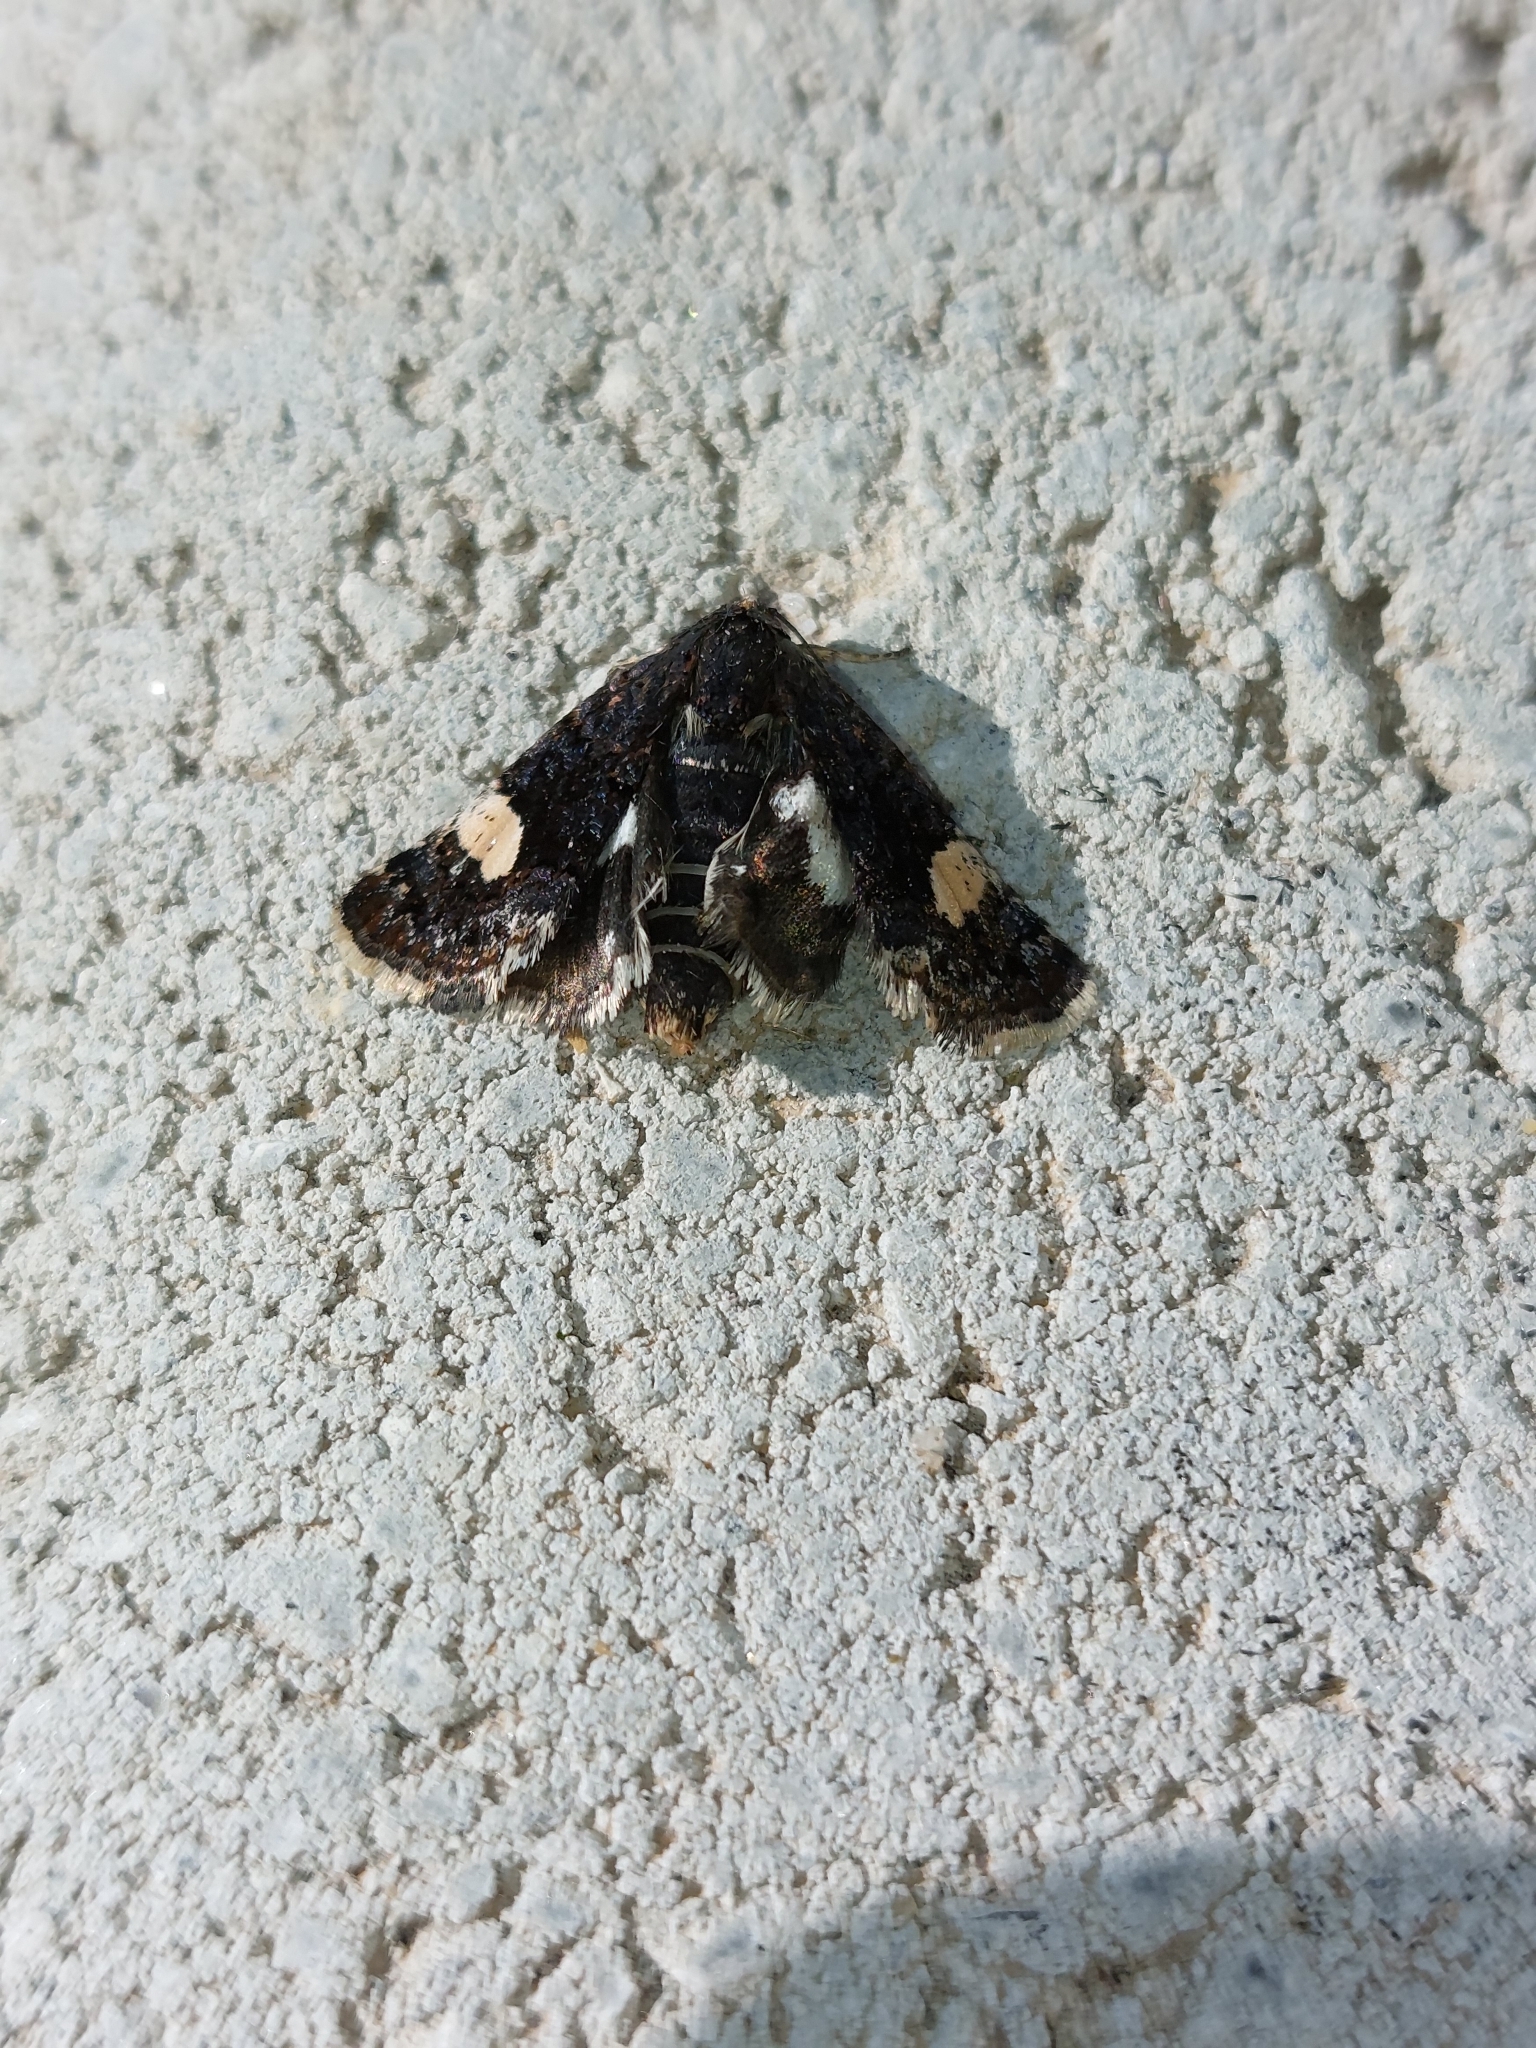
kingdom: Animalia
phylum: Arthropoda
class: Insecta
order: Lepidoptera
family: Erebidae
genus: Tyta
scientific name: Tyta luctuosa
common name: Four-spotted
